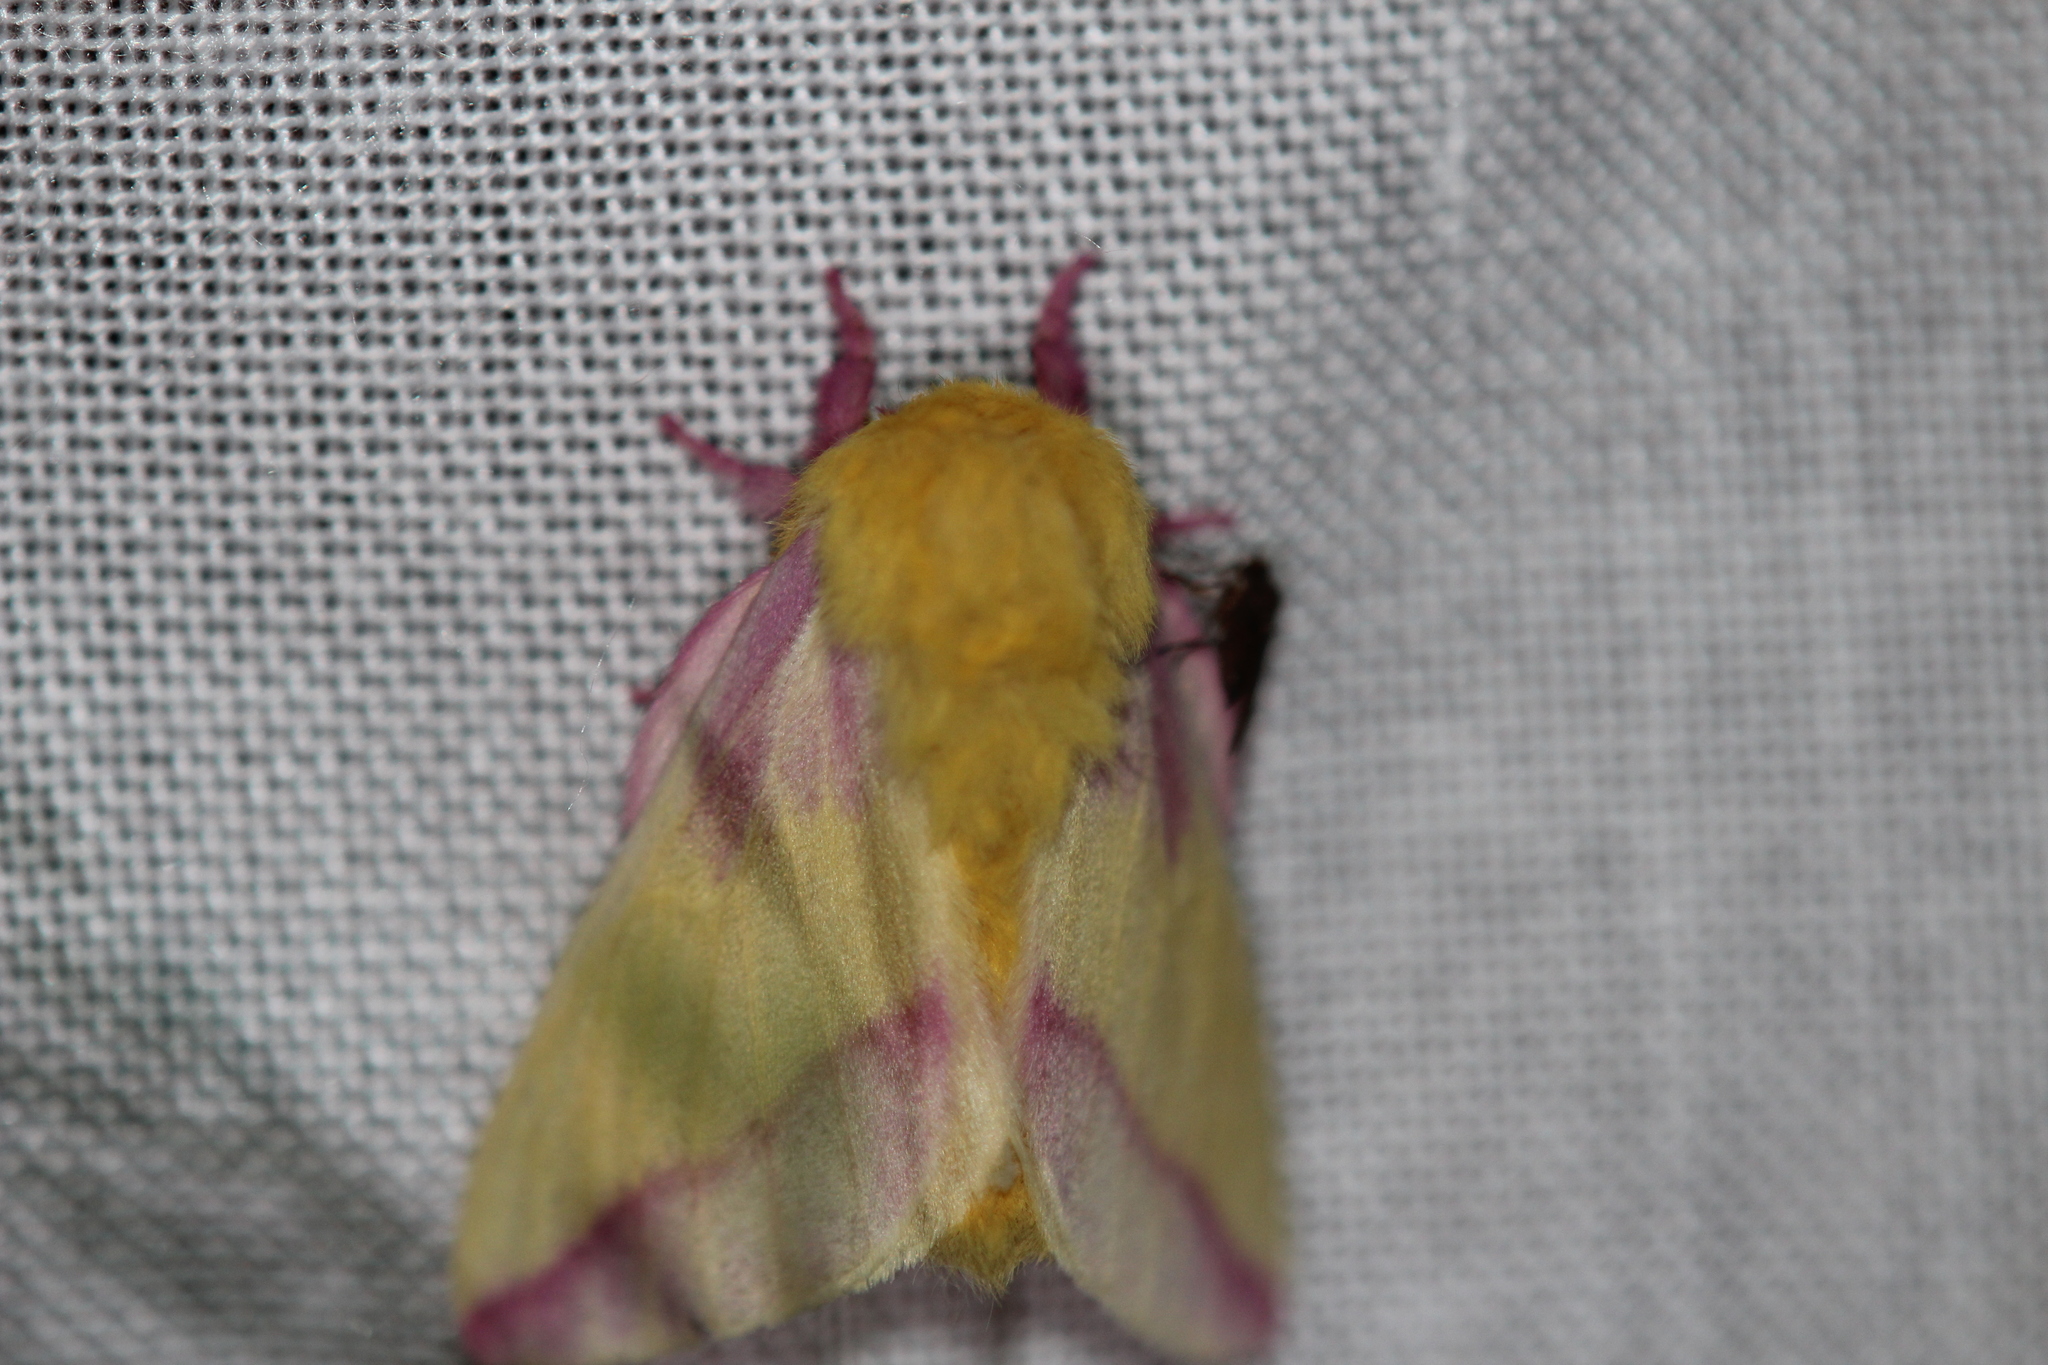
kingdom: Animalia
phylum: Arthropoda
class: Insecta
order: Lepidoptera
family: Saturniidae
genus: Dryocampa
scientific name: Dryocampa rubicunda
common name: Rosy maple moth
